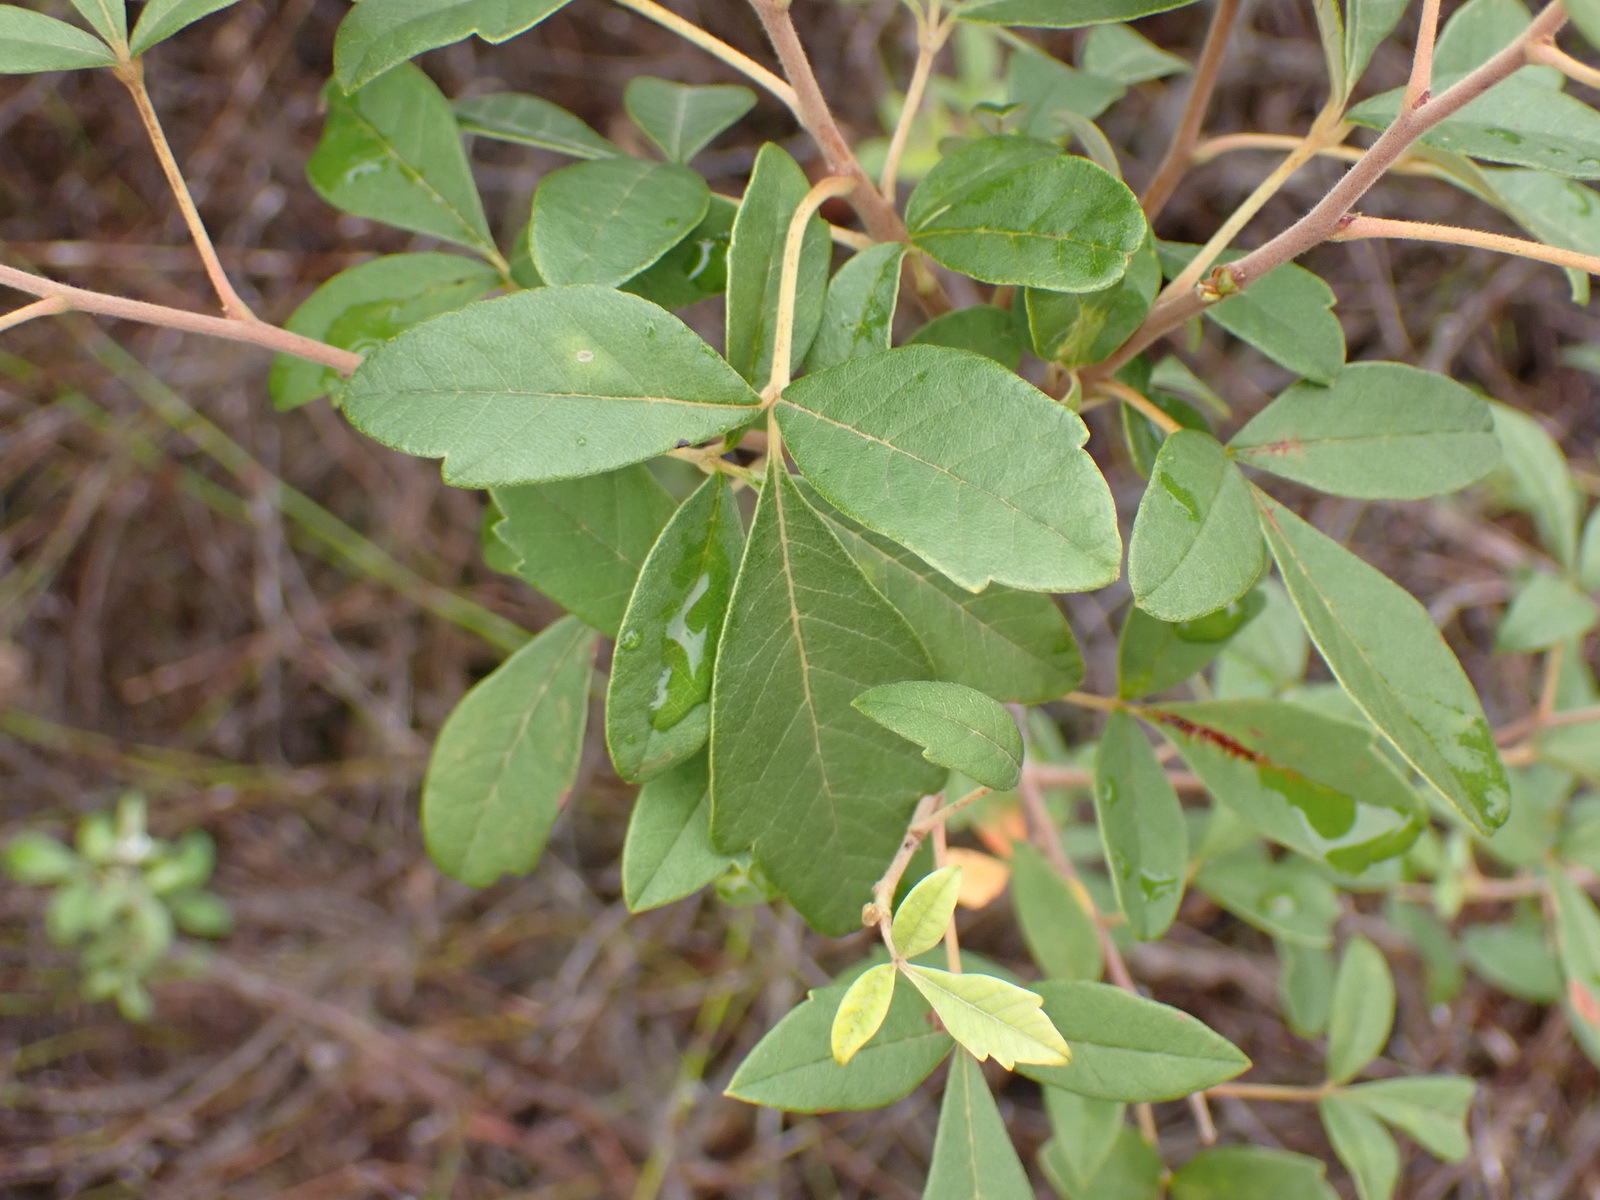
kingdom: Plantae
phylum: Tracheophyta
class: Magnoliopsida
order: Sapindales
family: Anacardiaceae
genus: Searsia
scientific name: Searsia tomentosa
